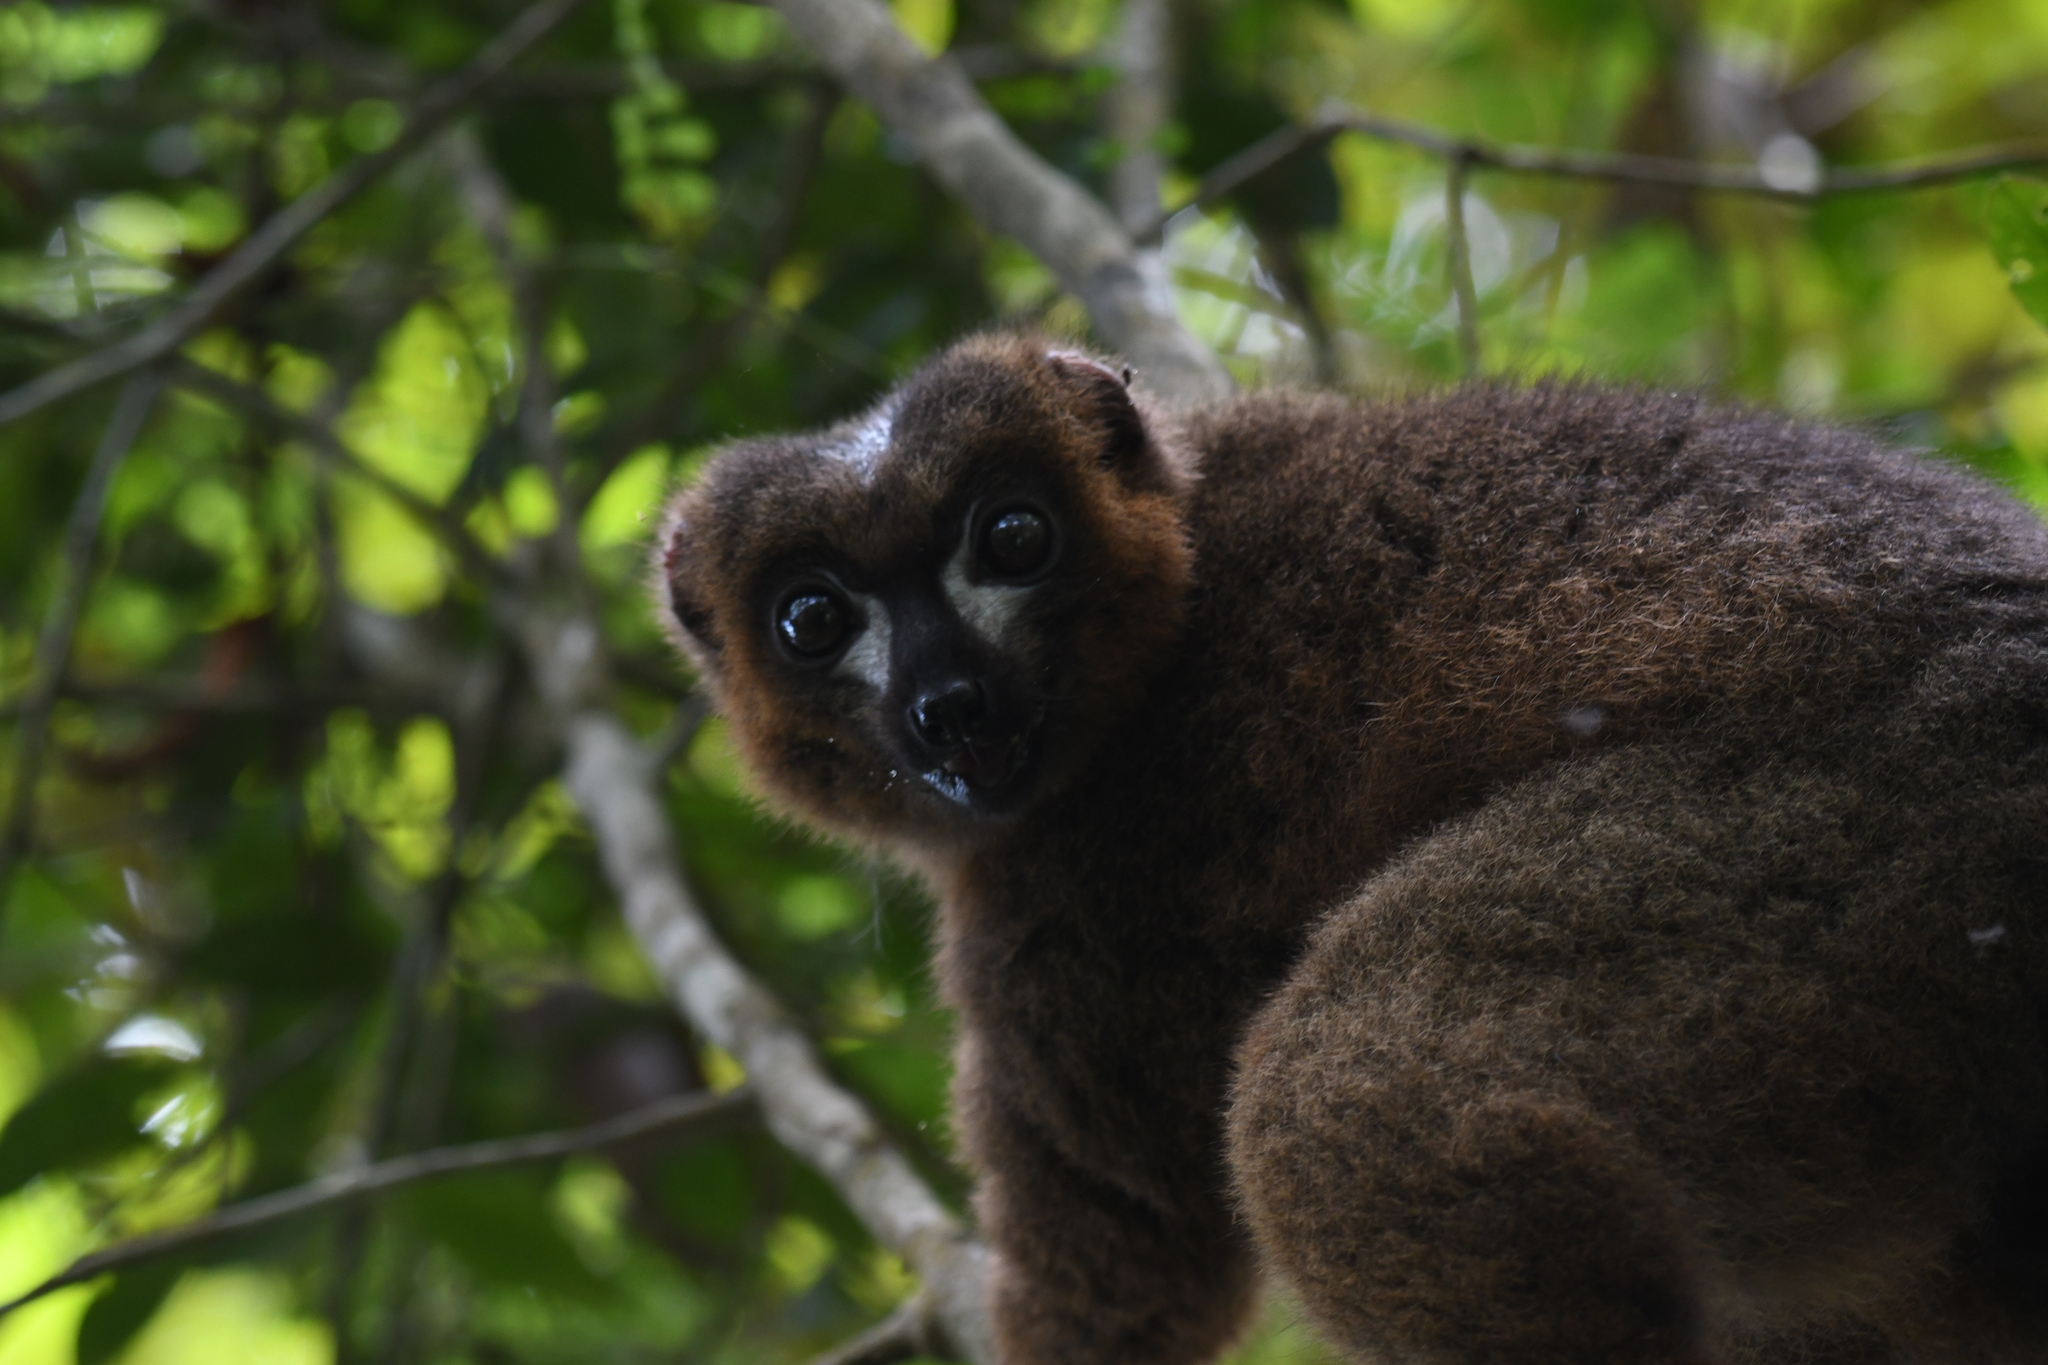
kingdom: Animalia
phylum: Chordata
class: Mammalia
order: Primates
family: Lemuridae
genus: Eulemur
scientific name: Eulemur rubriventer
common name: Red-bellied lemur
